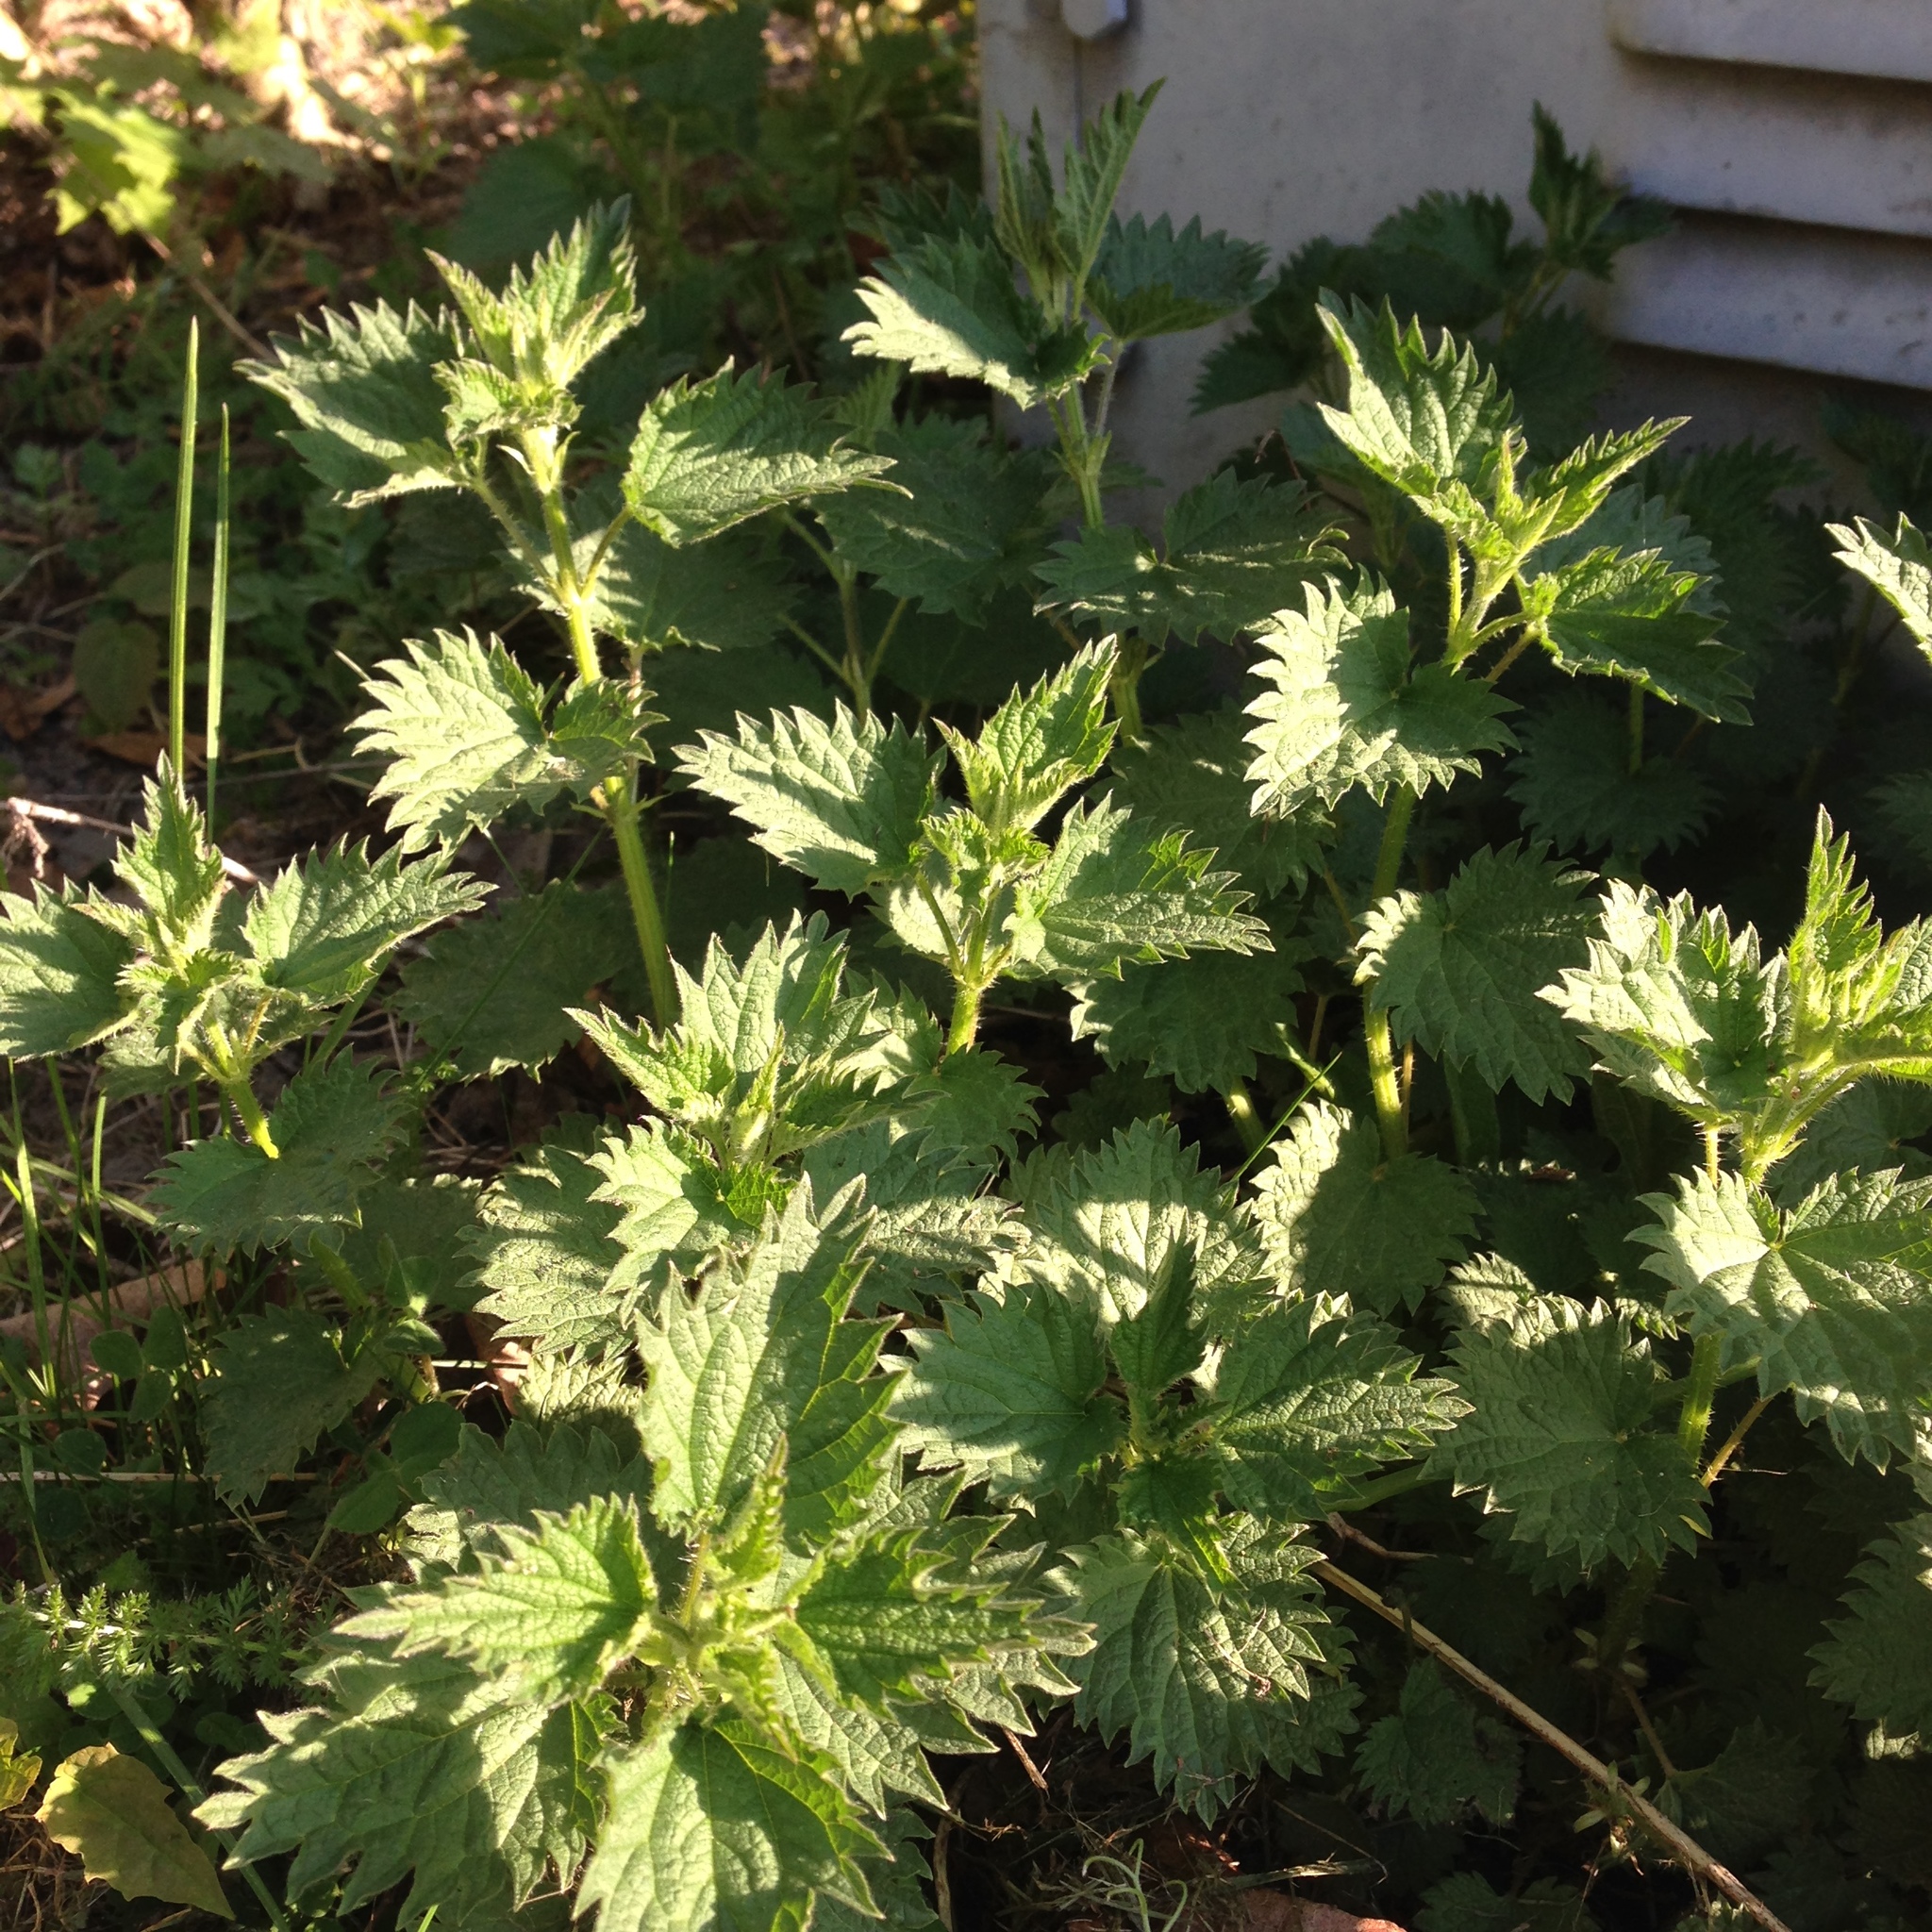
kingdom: Plantae
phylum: Tracheophyta
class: Magnoliopsida
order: Rosales
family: Urticaceae
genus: Urtica
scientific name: Urtica dioica
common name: Common nettle
